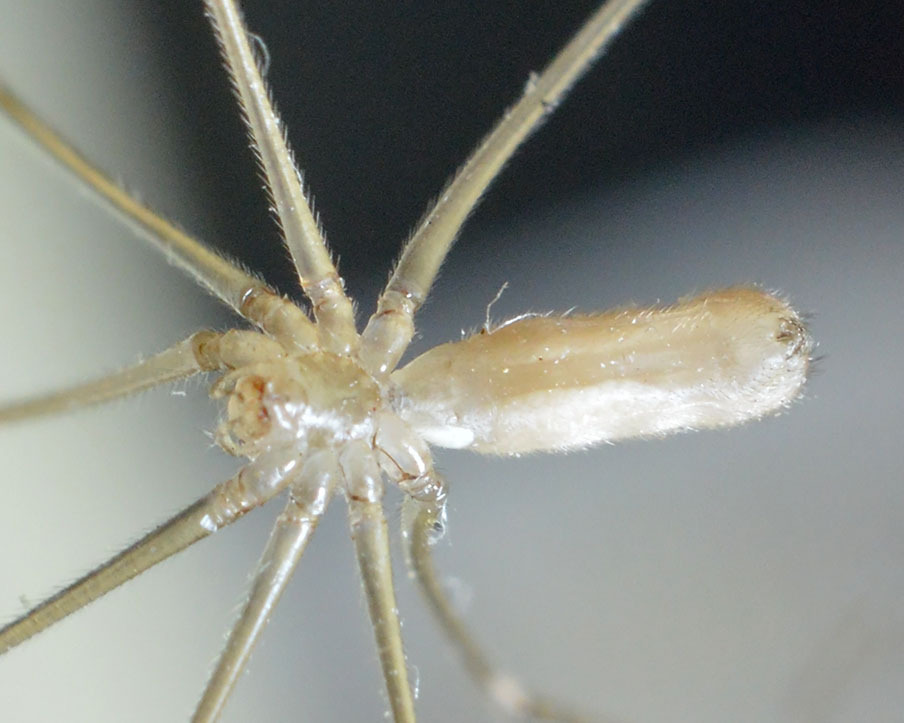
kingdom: Animalia
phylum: Arthropoda
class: Arachnida
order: Araneae
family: Pholcidae
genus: Pholcus
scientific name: Pholcus phalangioides
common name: Longbodied cellar spider
